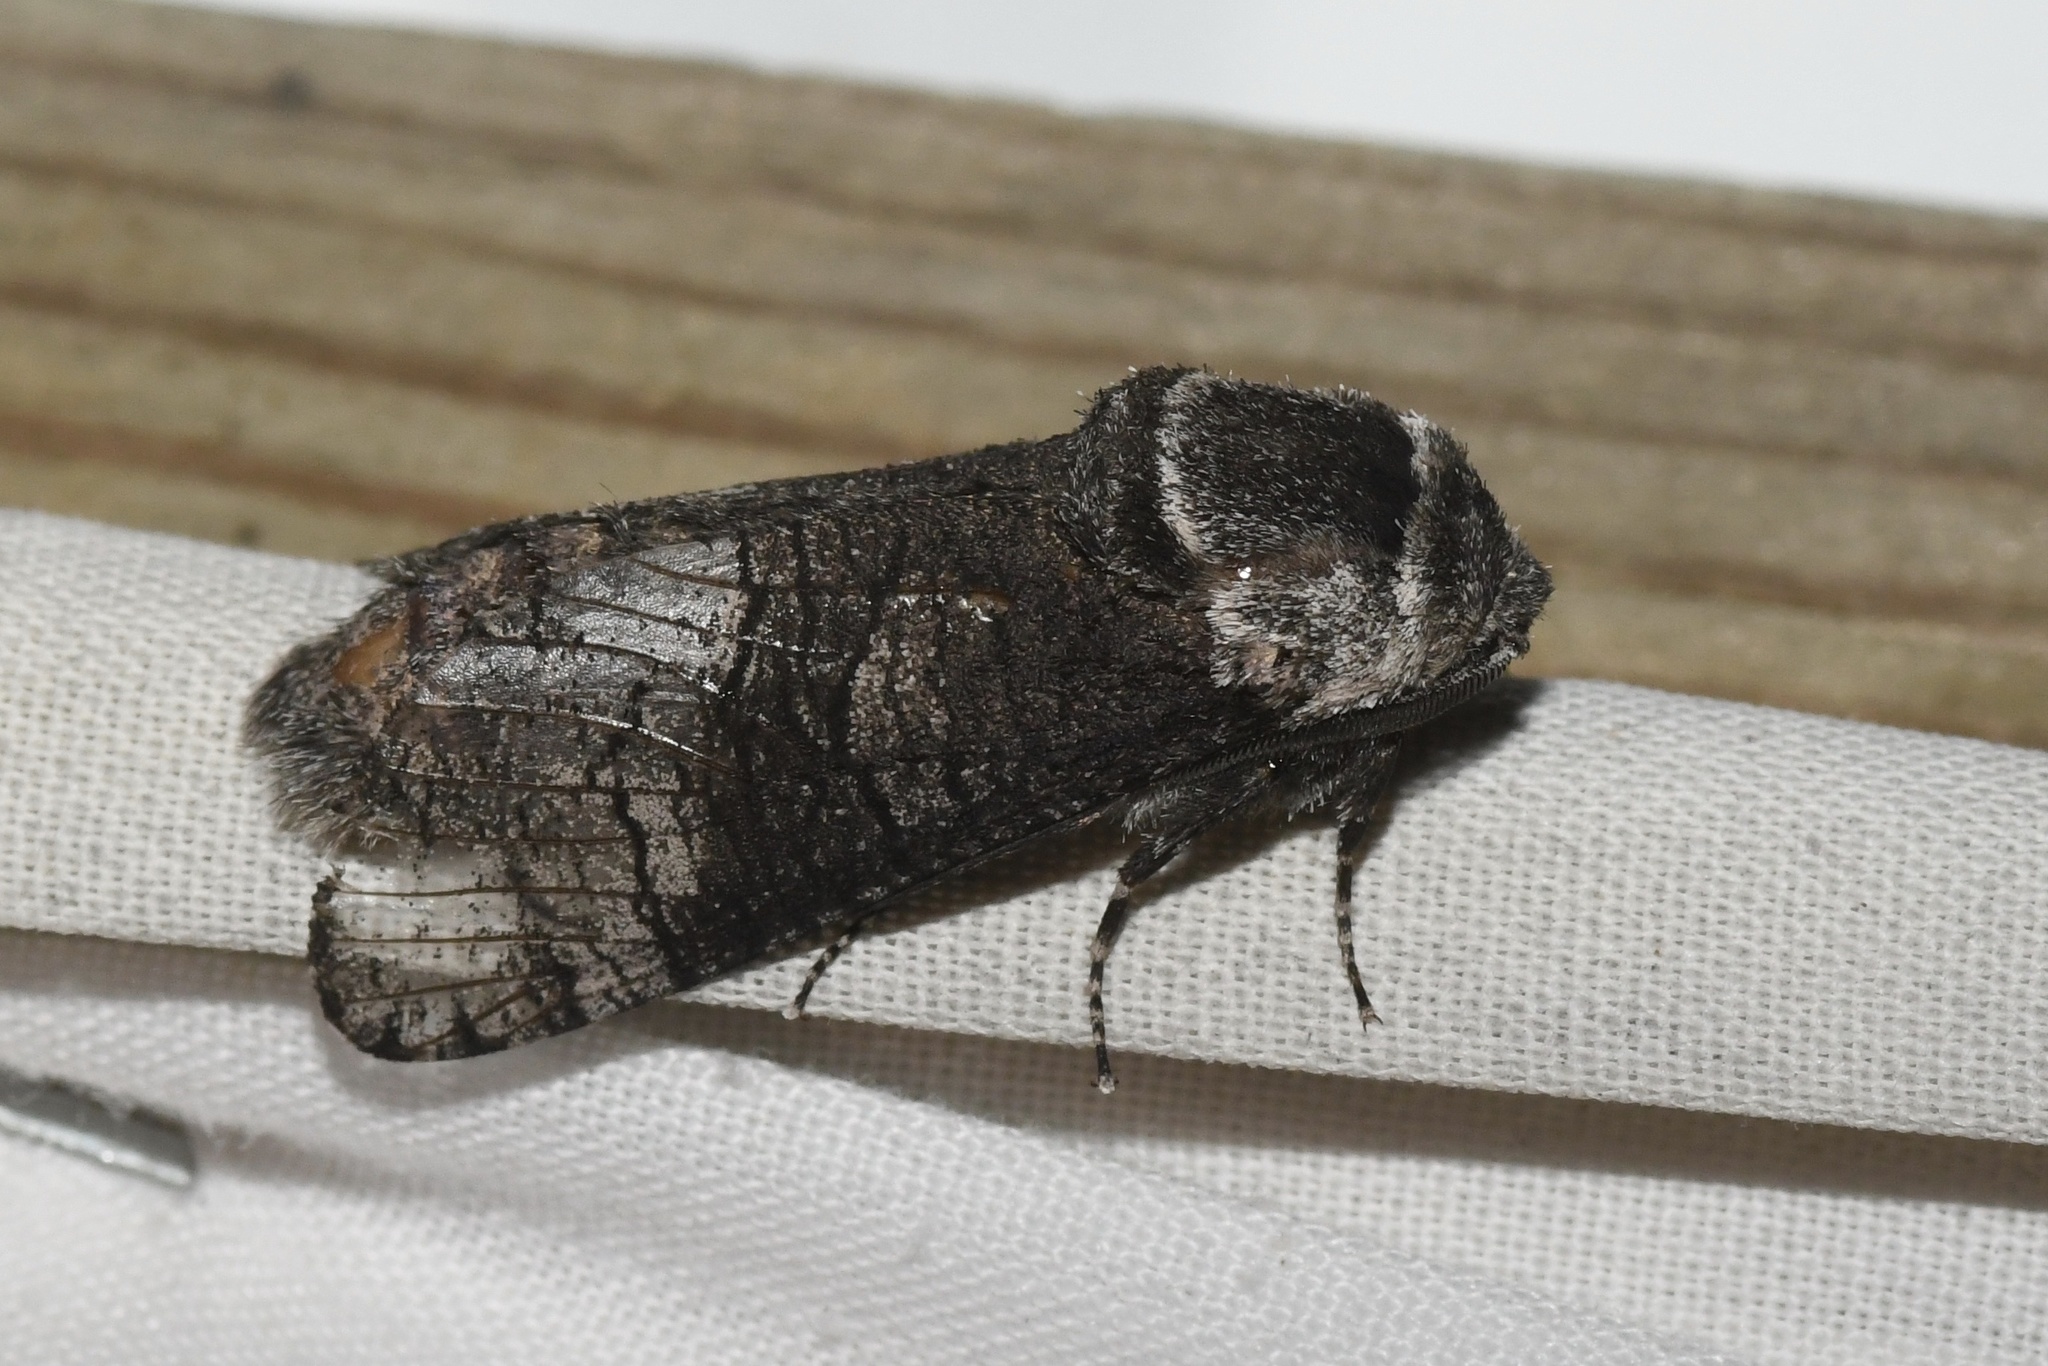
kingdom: Animalia
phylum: Arthropoda
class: Insecta
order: Lepidoptera
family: Cossidae
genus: Acossus
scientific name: Acossus centerensis
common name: Poplar carpenterworm moth
